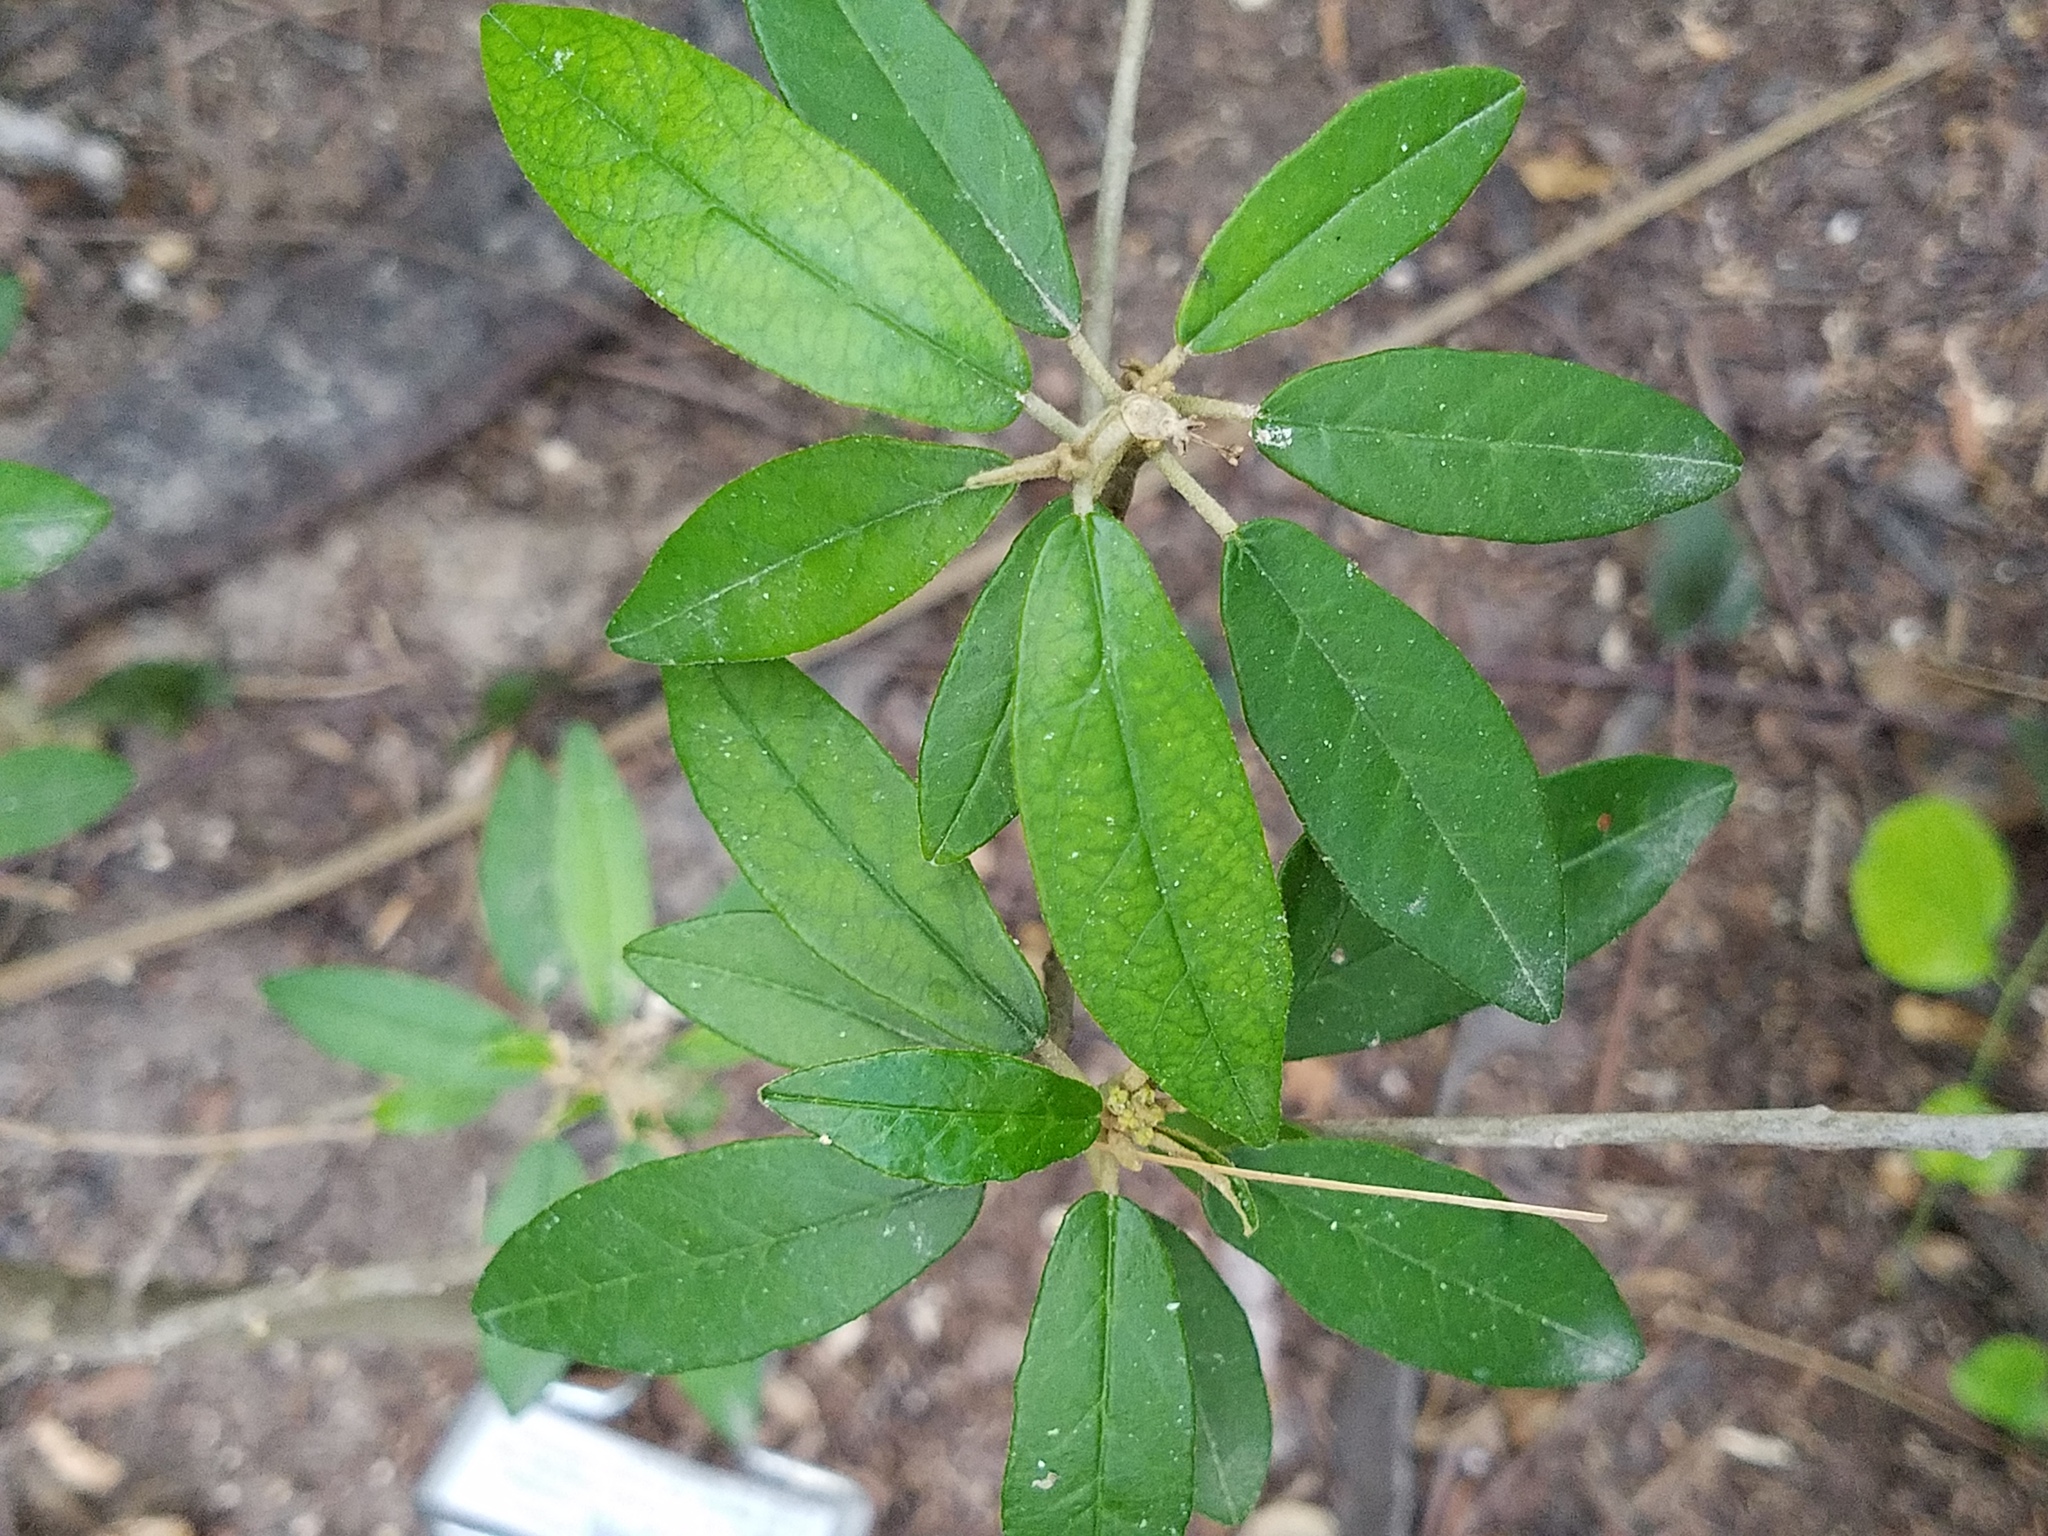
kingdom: Plantae
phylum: Tracheophyta
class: Magnoliopsida
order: Malpighiales
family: Euphorbiaceae
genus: Croton
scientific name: Croton cortesianus
